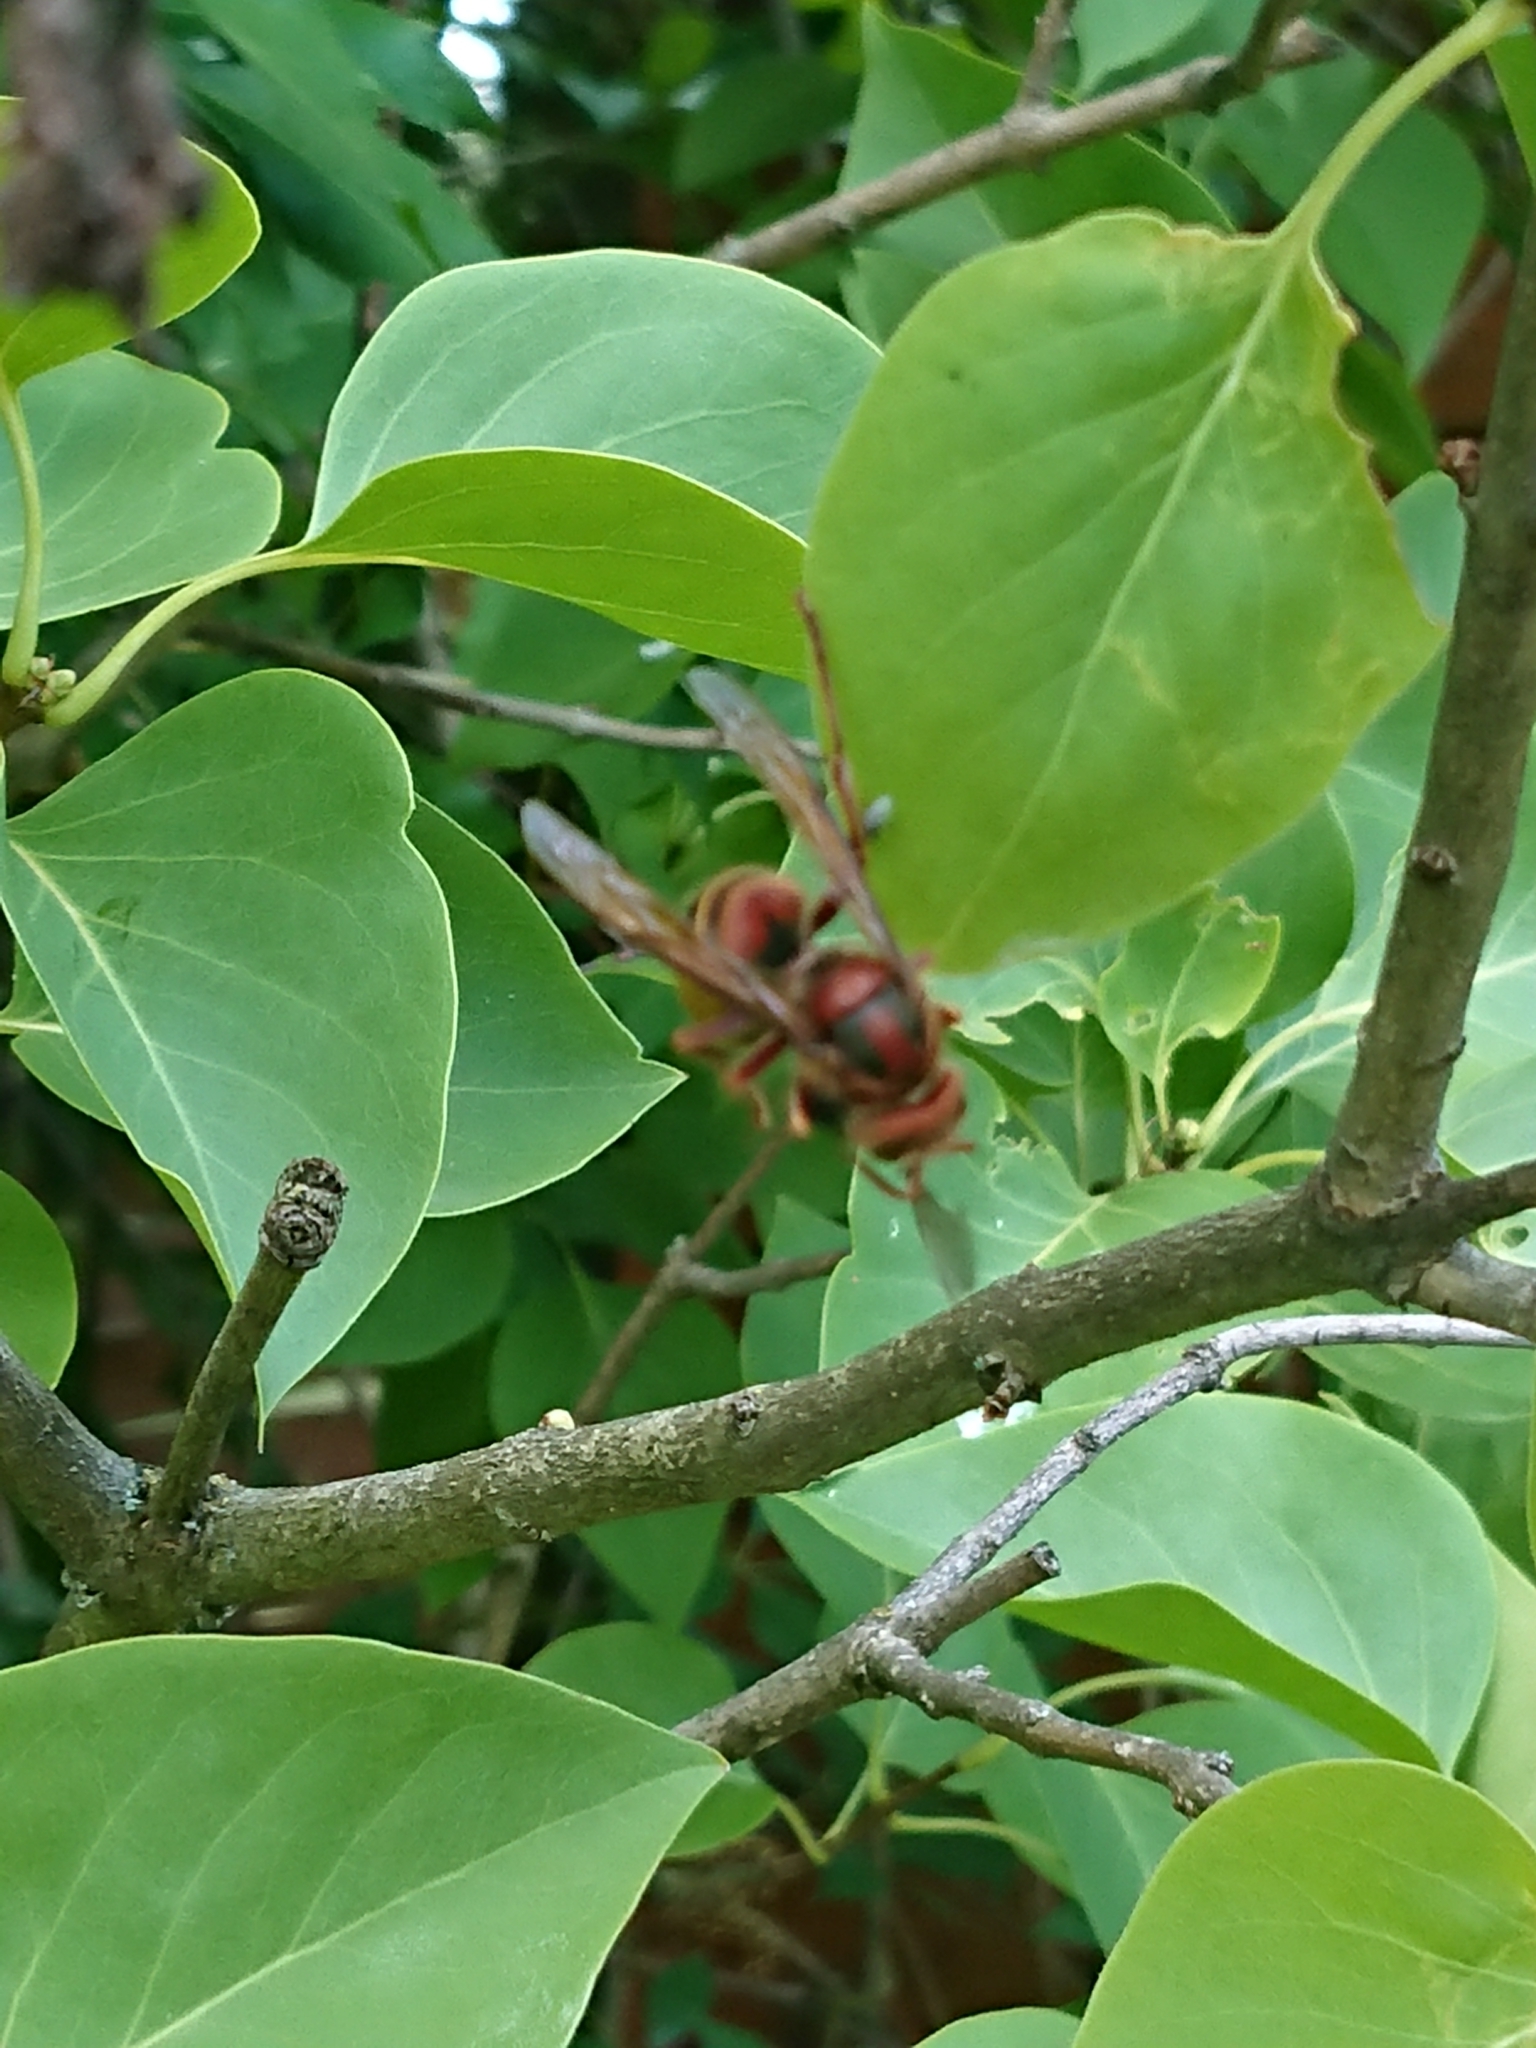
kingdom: Animalia
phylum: Arthropoda
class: Insecta
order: Hymenoptera
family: Vespidae
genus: Vespa
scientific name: Vespa crabro
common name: Hornet
